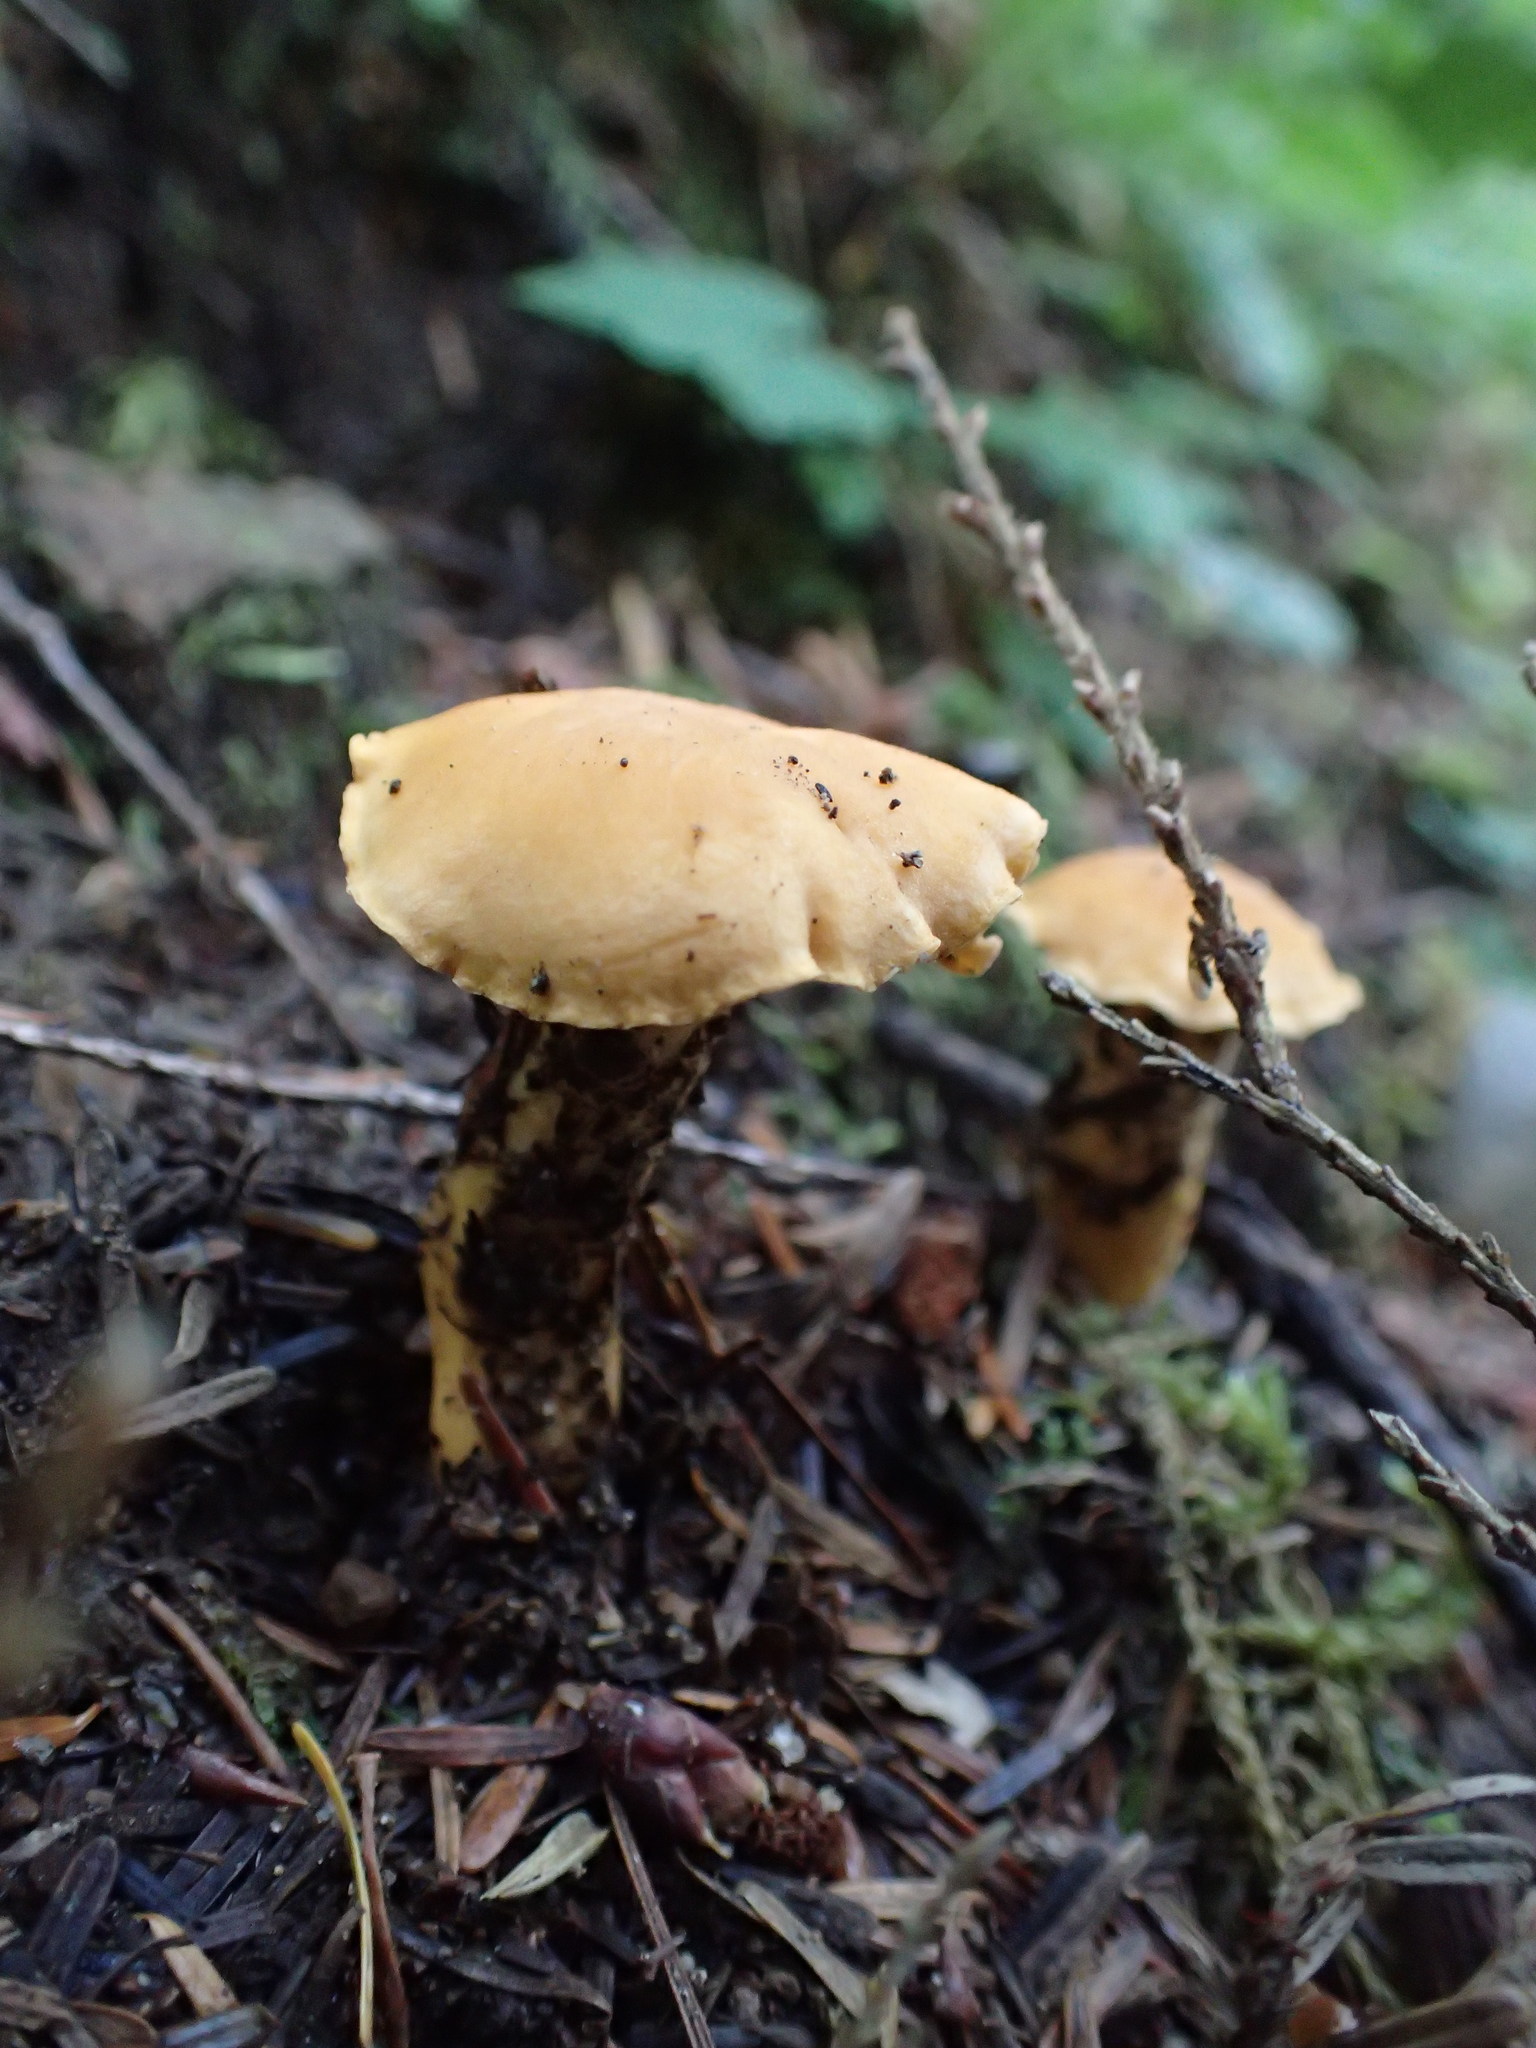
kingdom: Fungi
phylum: Basidiomycota
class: Agaricomycetes
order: Cantharellales
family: Hydnaceae
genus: Cantharellus
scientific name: Cantharellus formosus
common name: Pacific golden chanterelle
